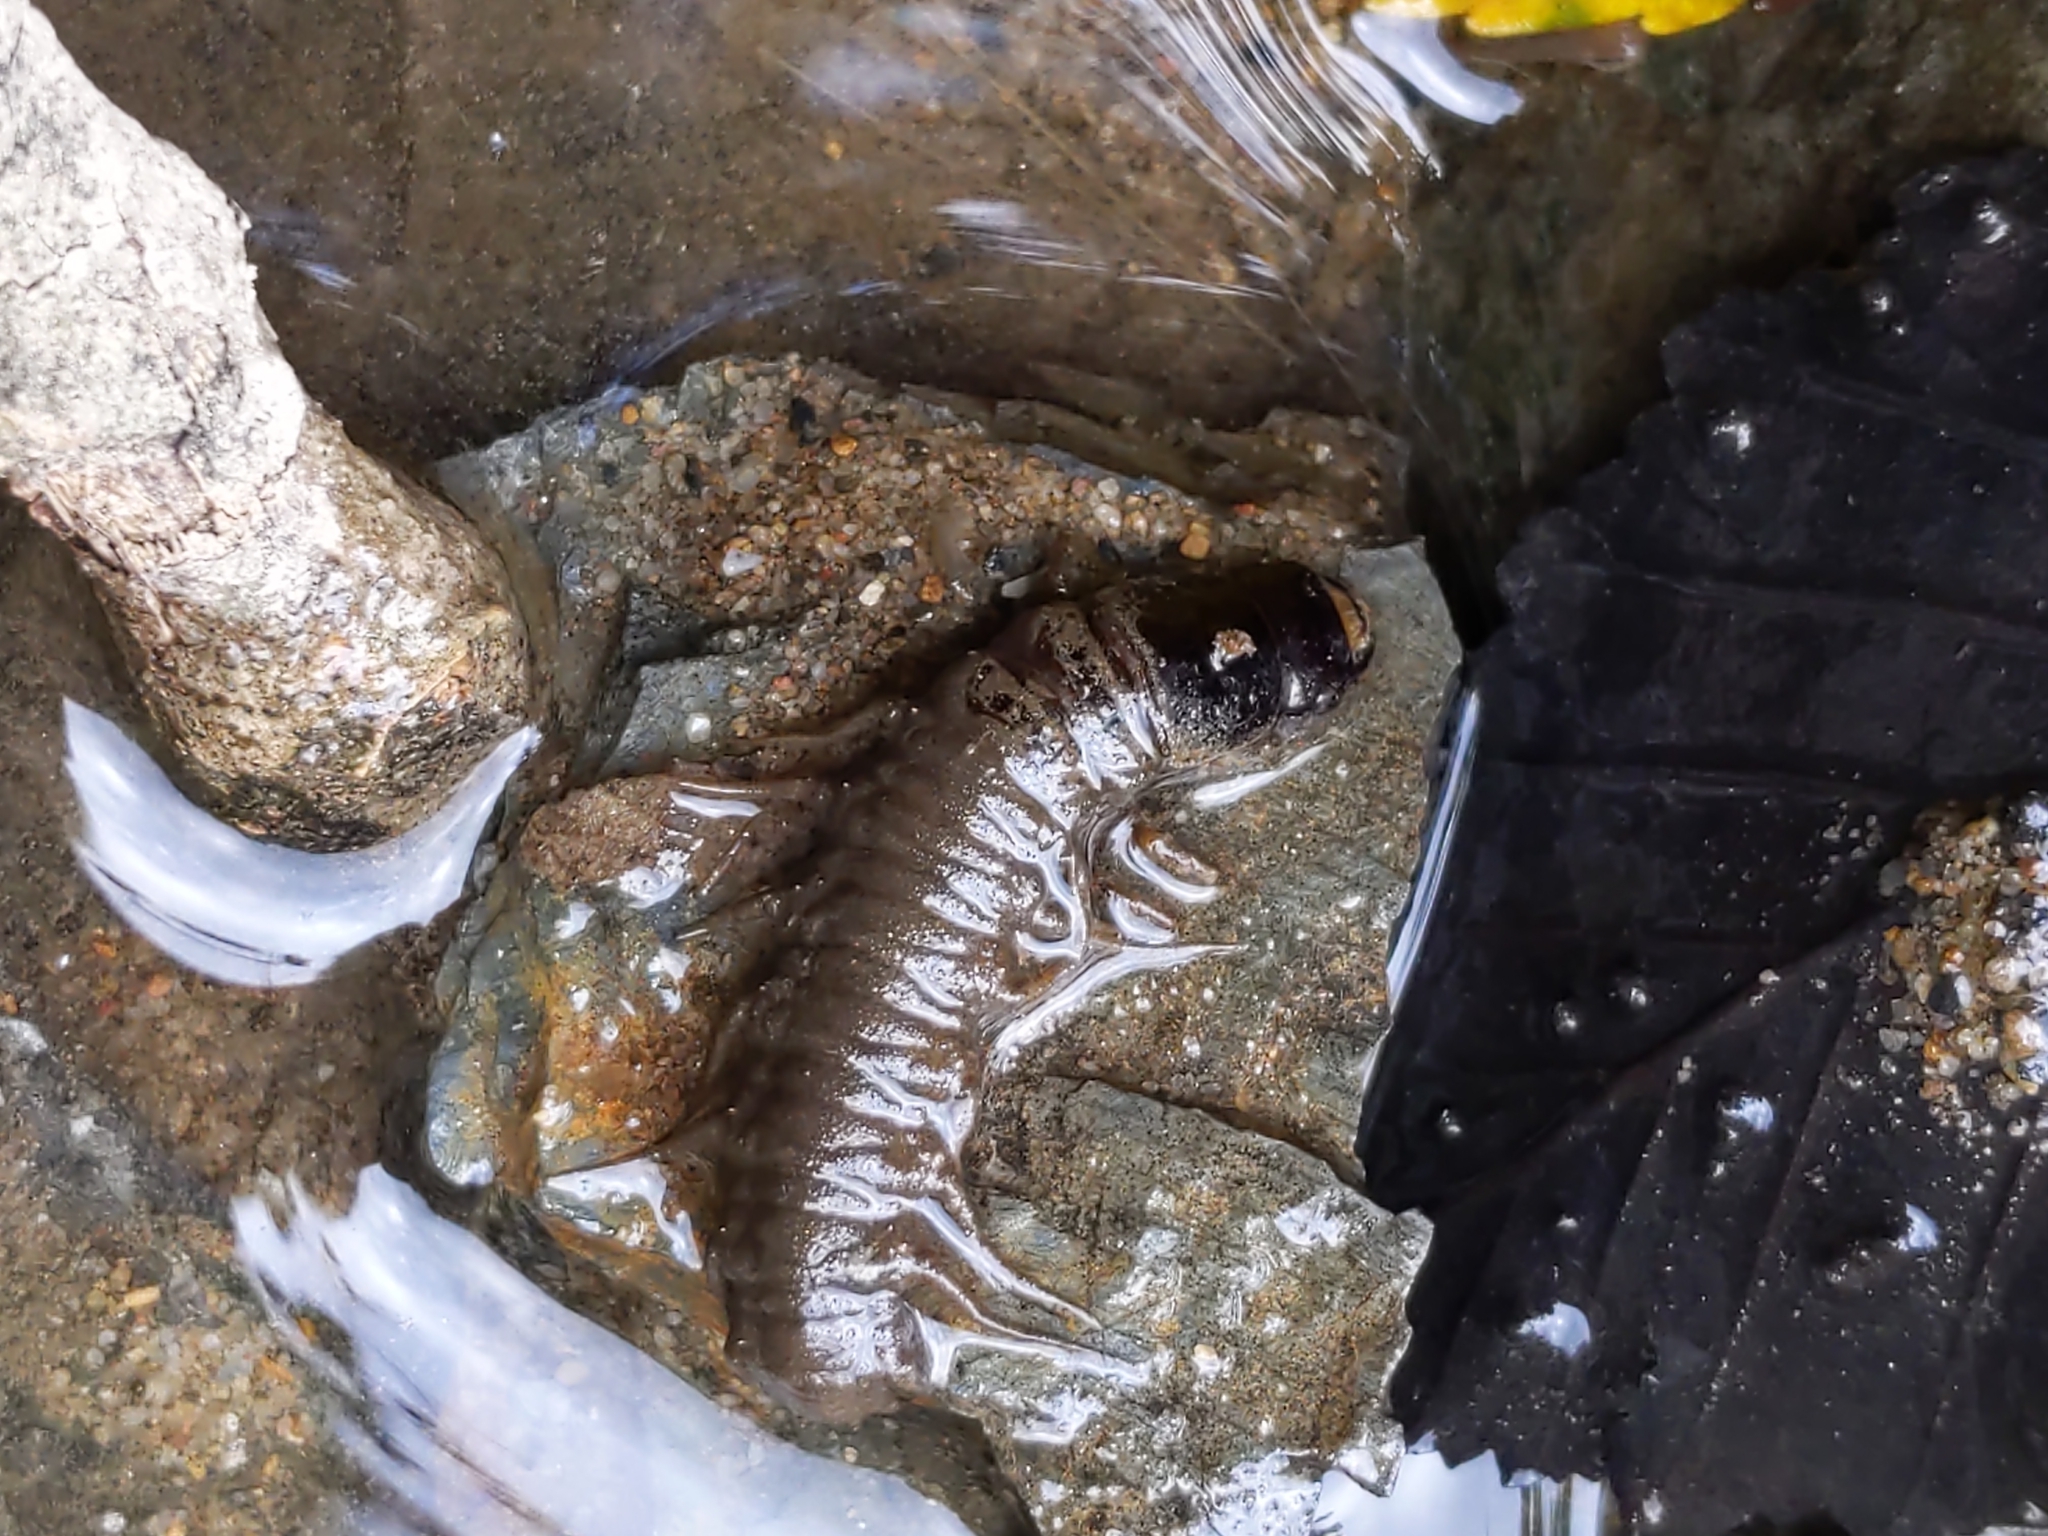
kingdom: Animalia
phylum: Arthropoda
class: Insecta
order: Megaloptera
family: Corydalidae
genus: Nigronia
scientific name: Nigronia serricornis
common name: Serrate dark fishfly
